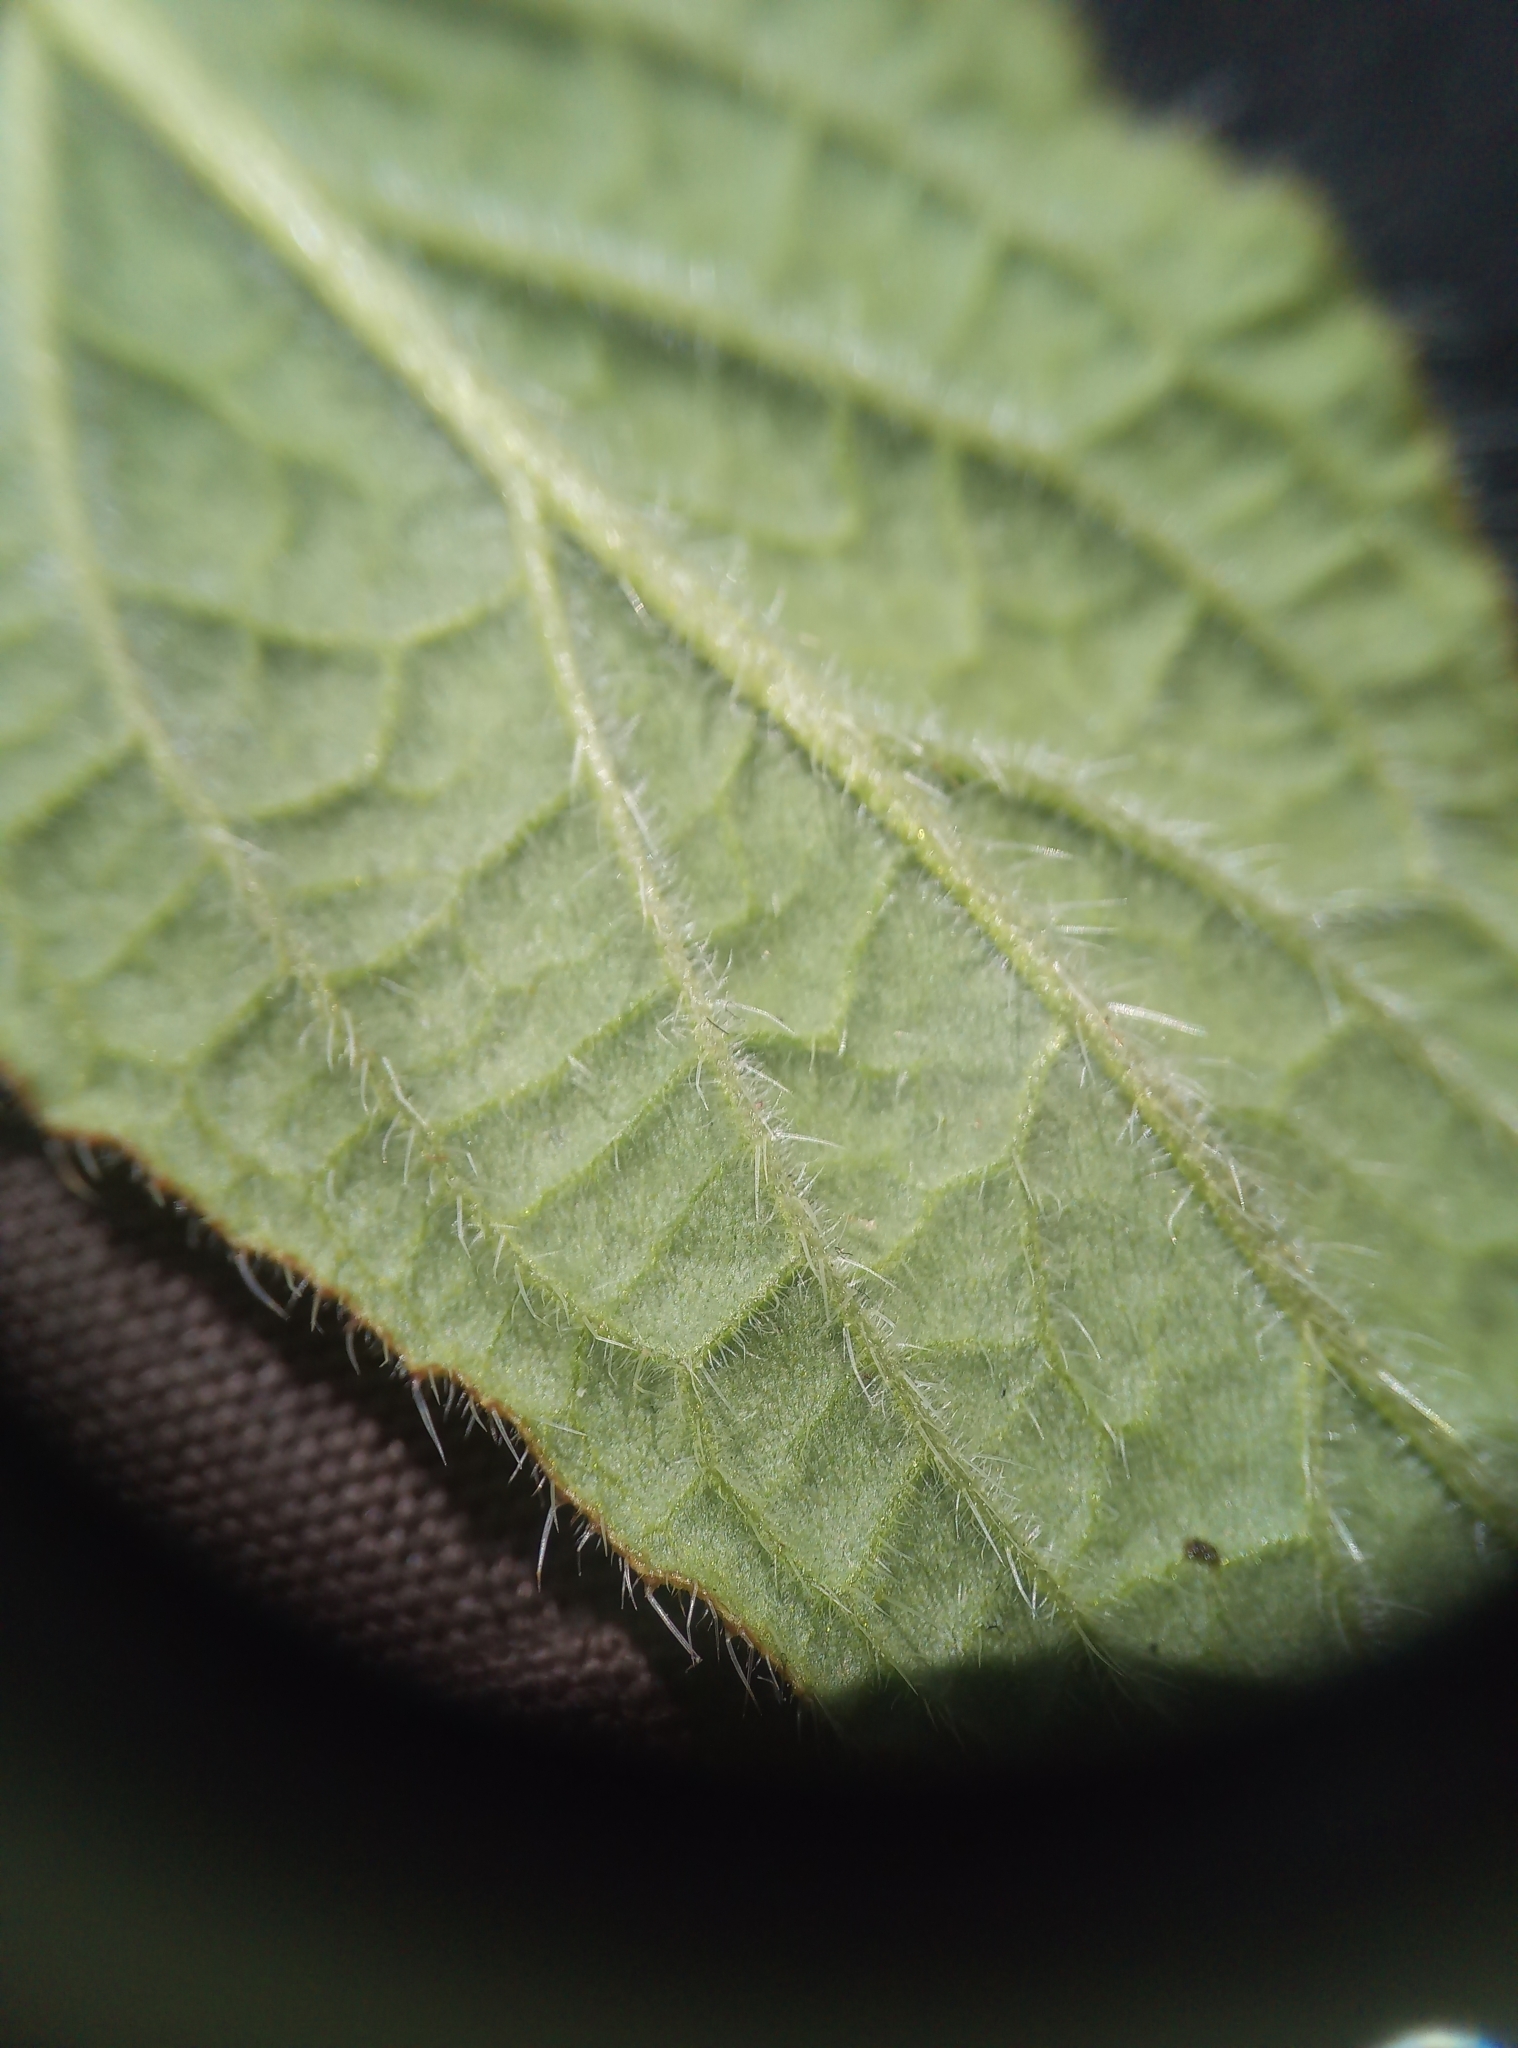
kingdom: Plantae
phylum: Tracheophyta
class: Magnoliopsida
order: Boraginales
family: Boraginaceae
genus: Pentaglottis
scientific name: Pentaglottis sempervirens
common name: Green alkanet
